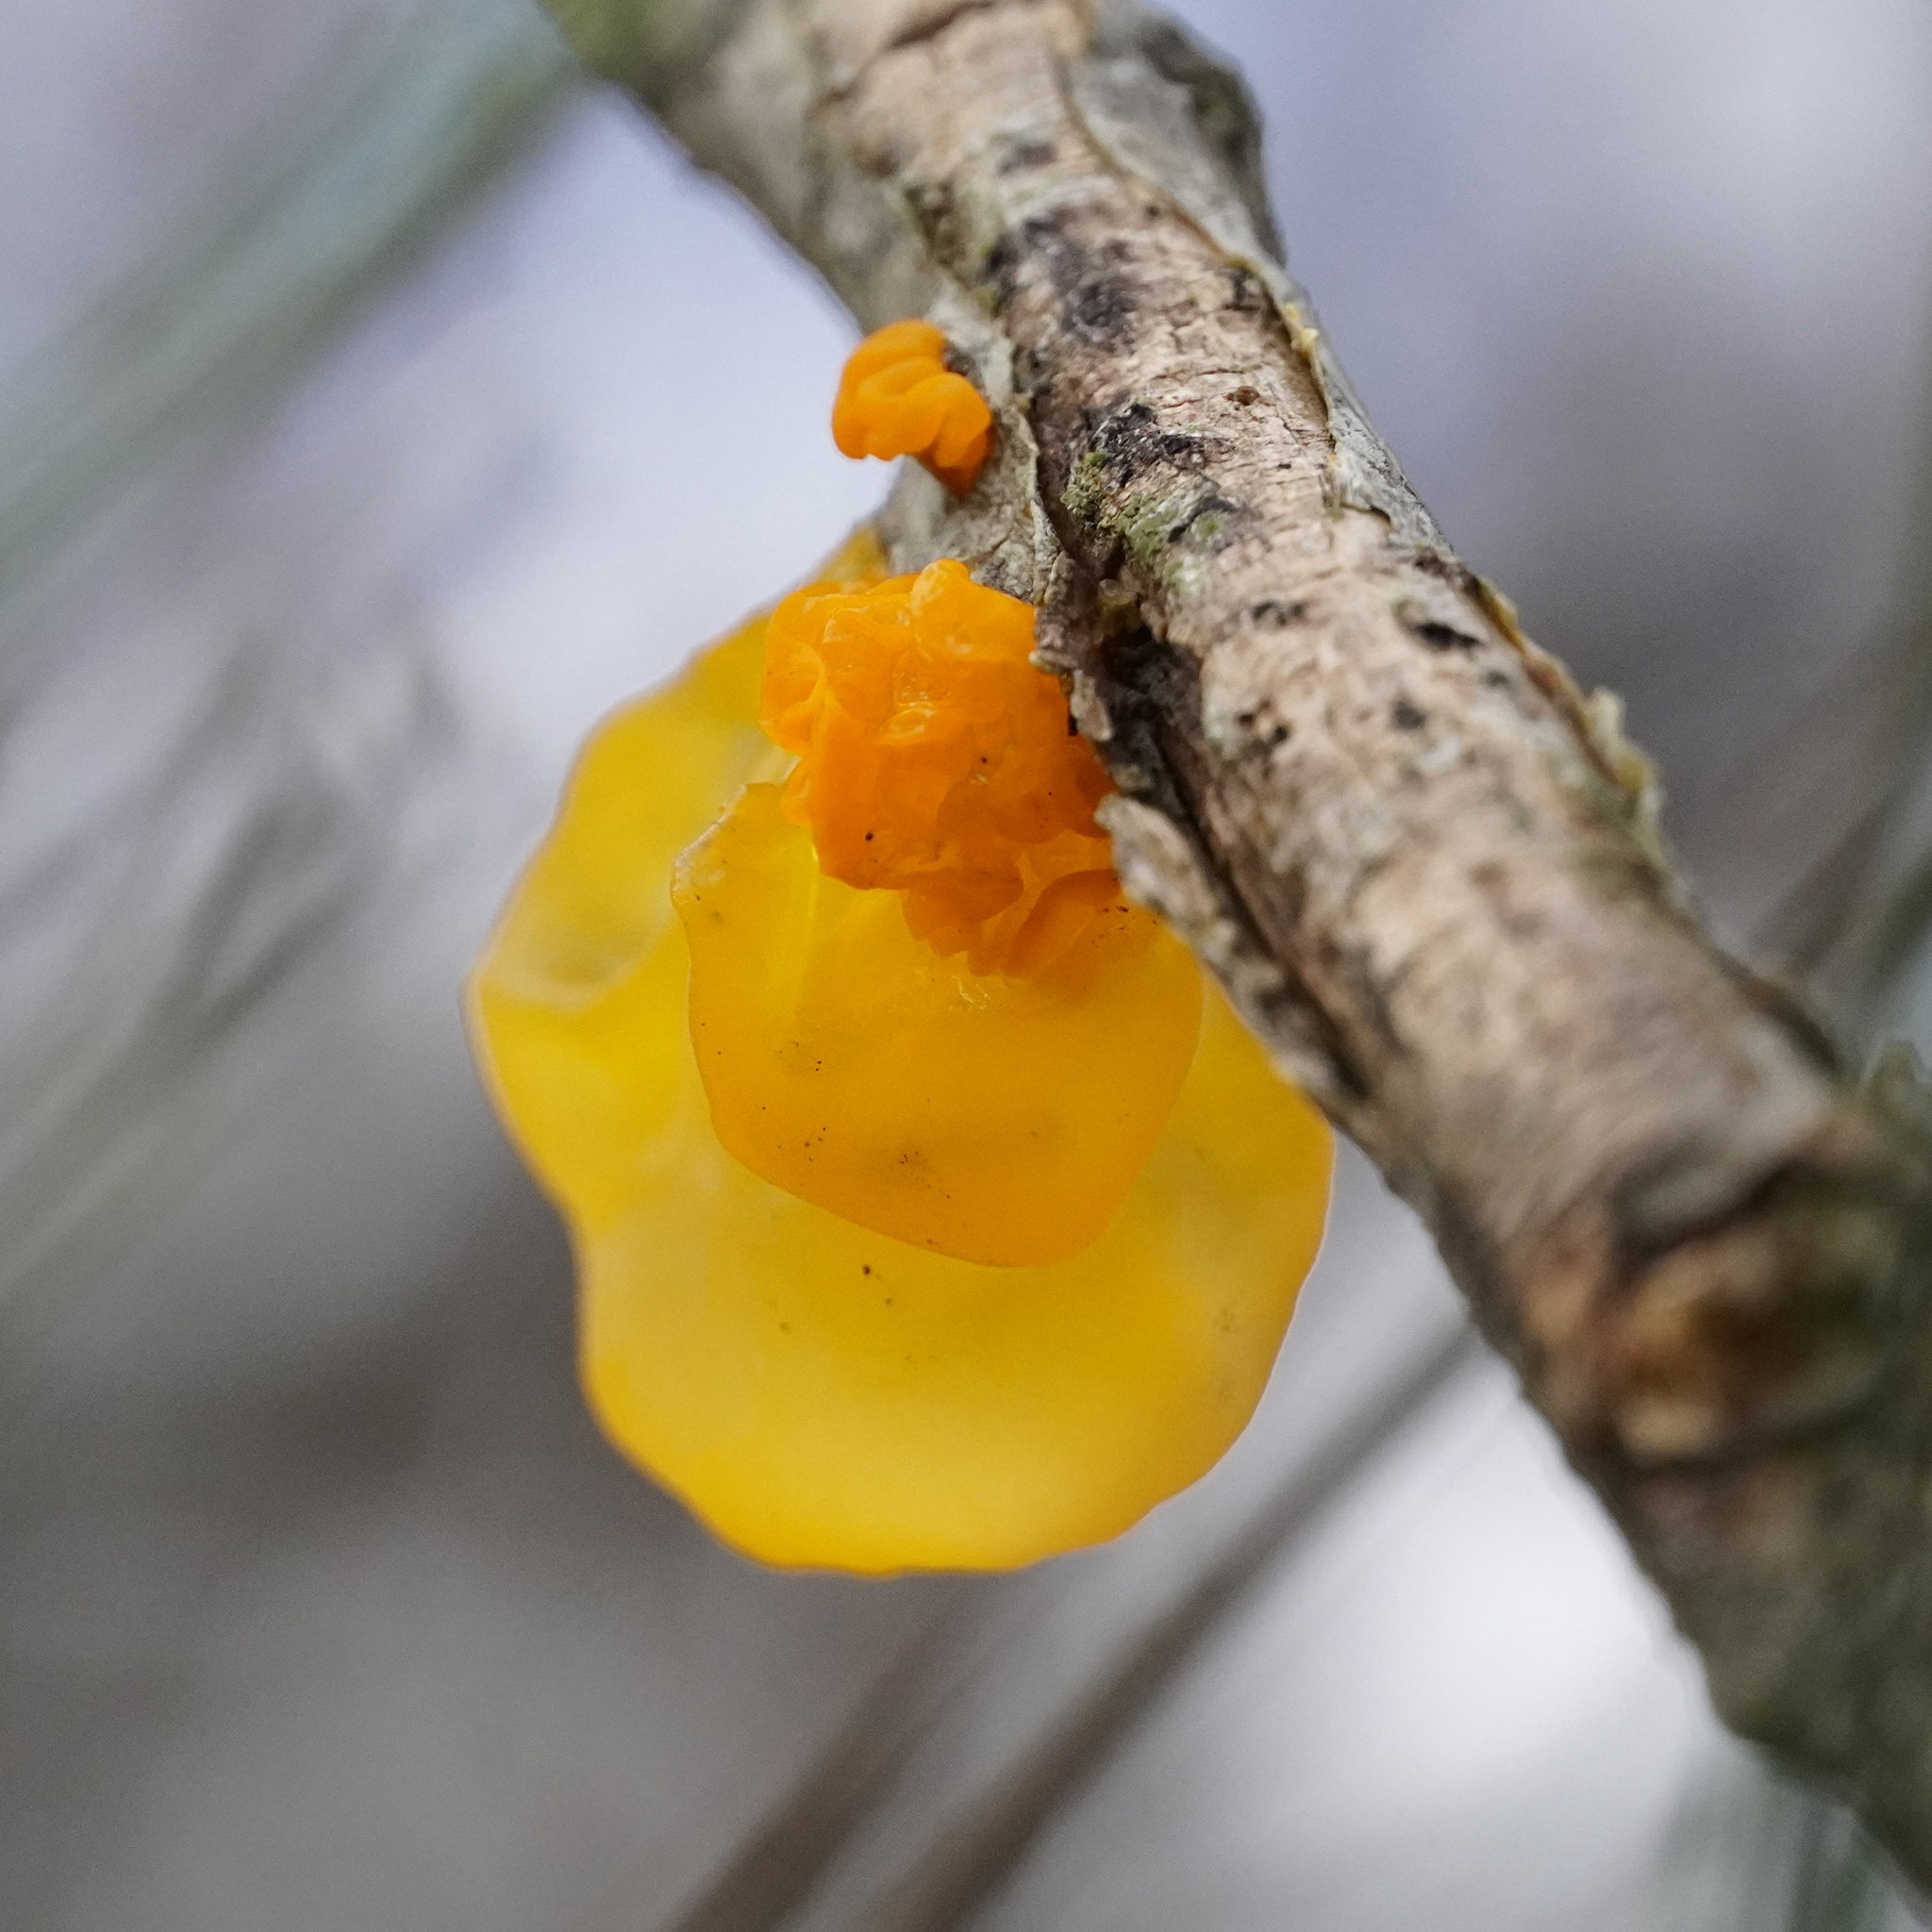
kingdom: Fungi
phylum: Basidiomycota
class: Tremellomycetes
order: Tremellales
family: Tremellaceae
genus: Tremella
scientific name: Tremella mesenterica
